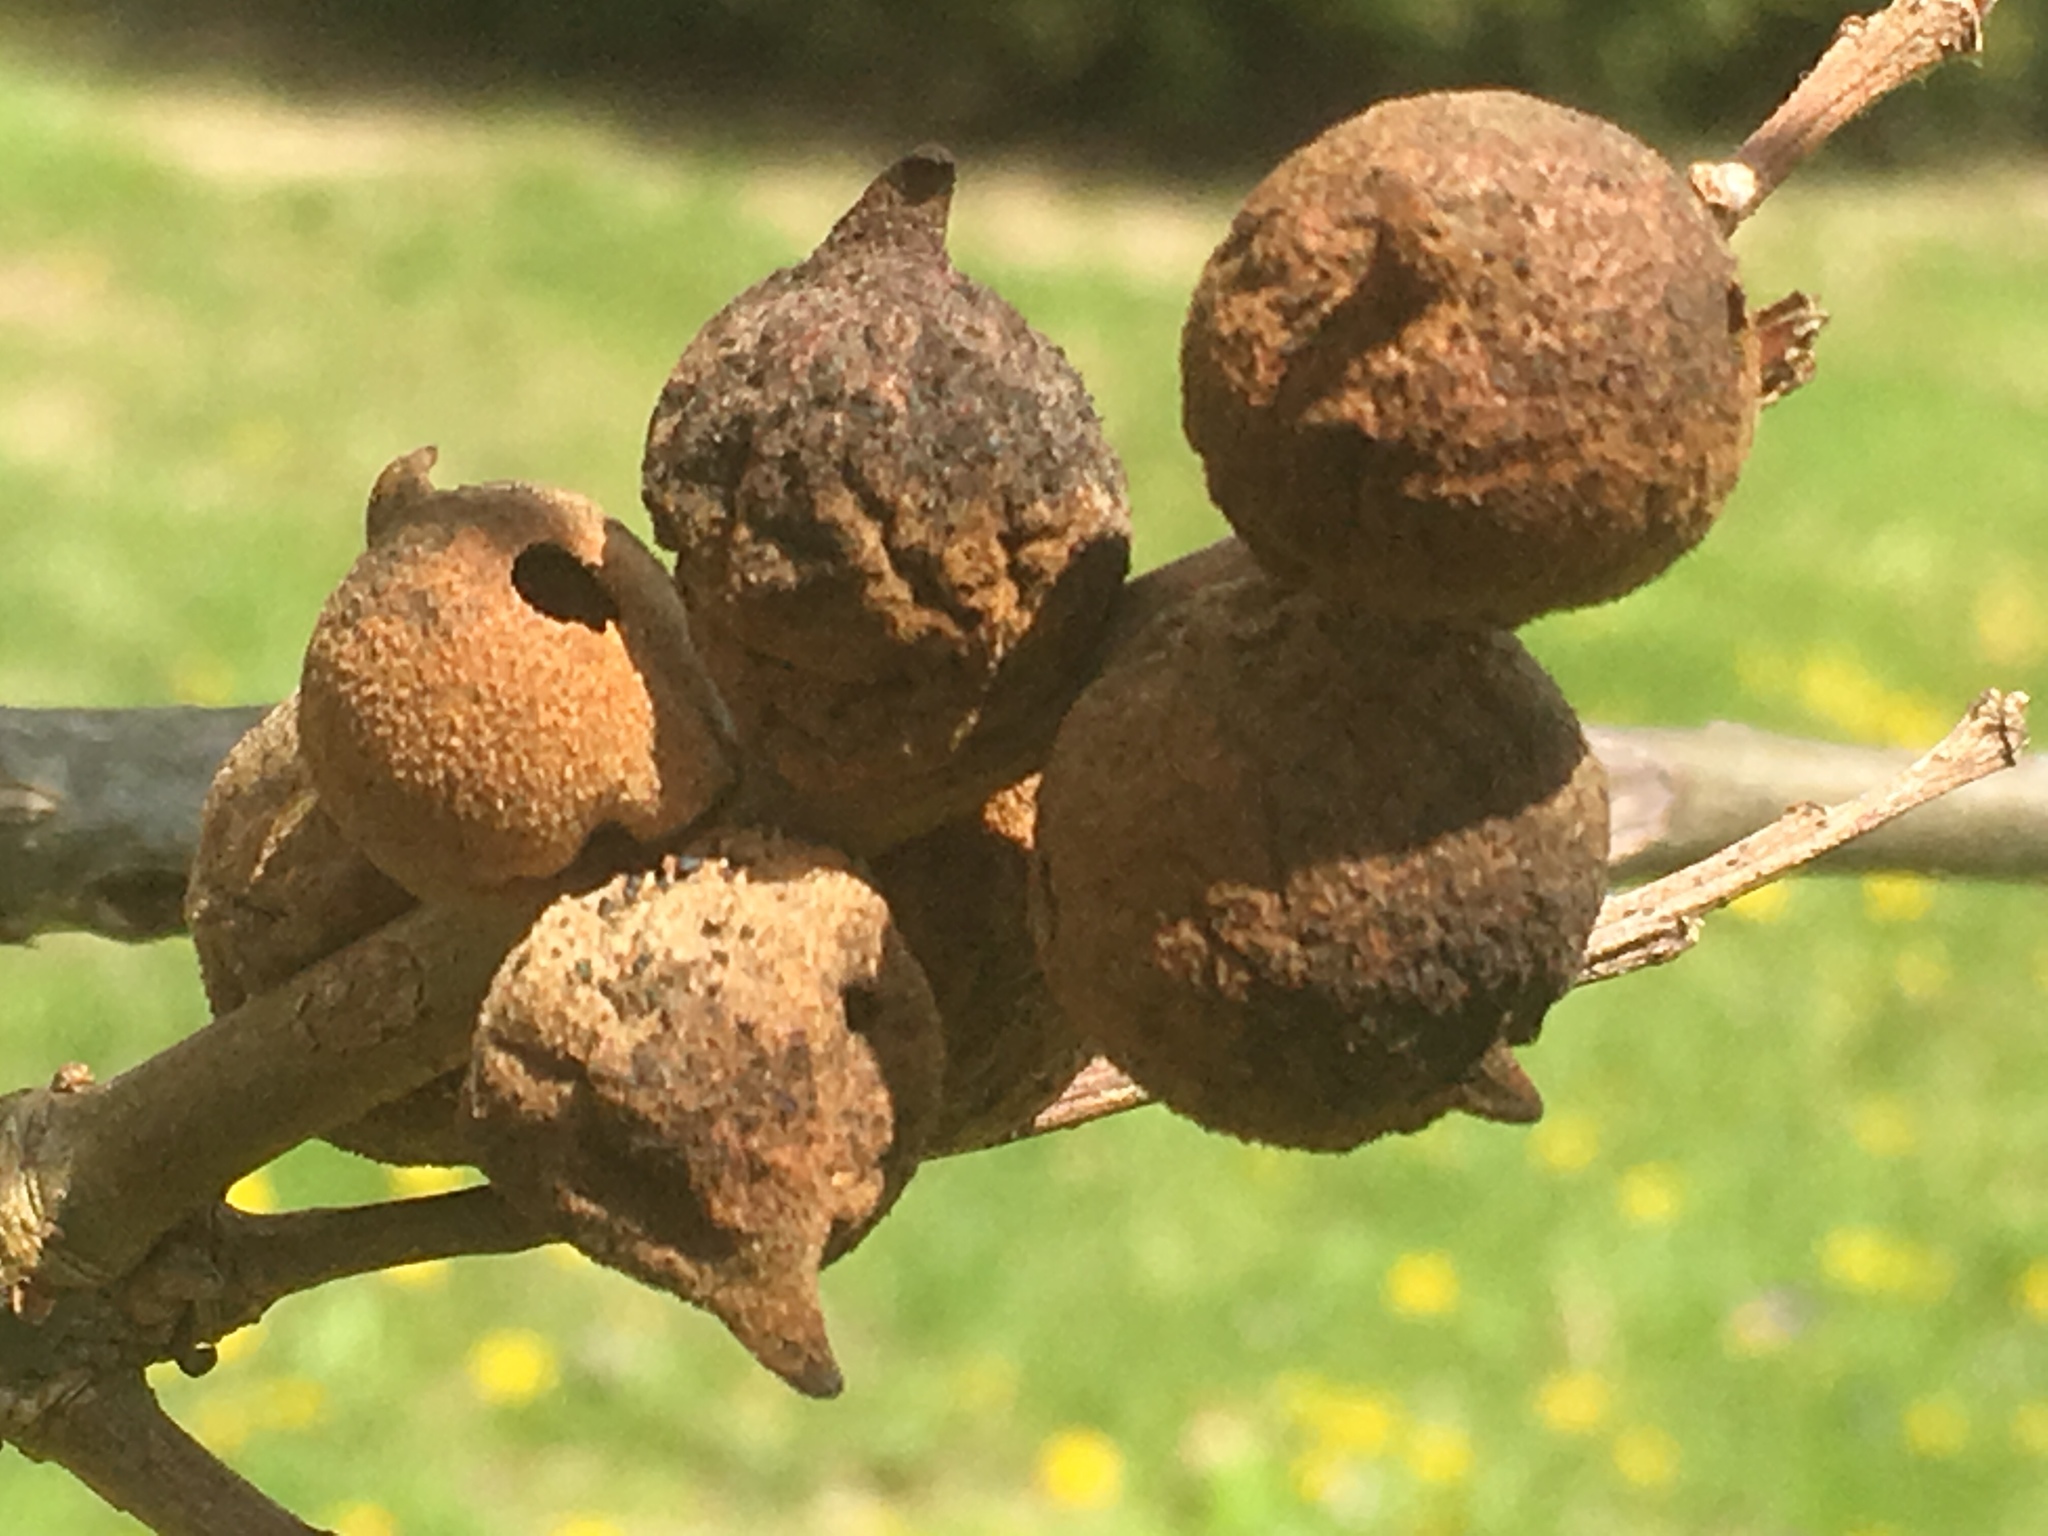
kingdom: Animalia
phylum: Arthropoda
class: Insecta
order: Hymenoptera
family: Cynipidae
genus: Disholcaspis
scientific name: Disholcaspis
